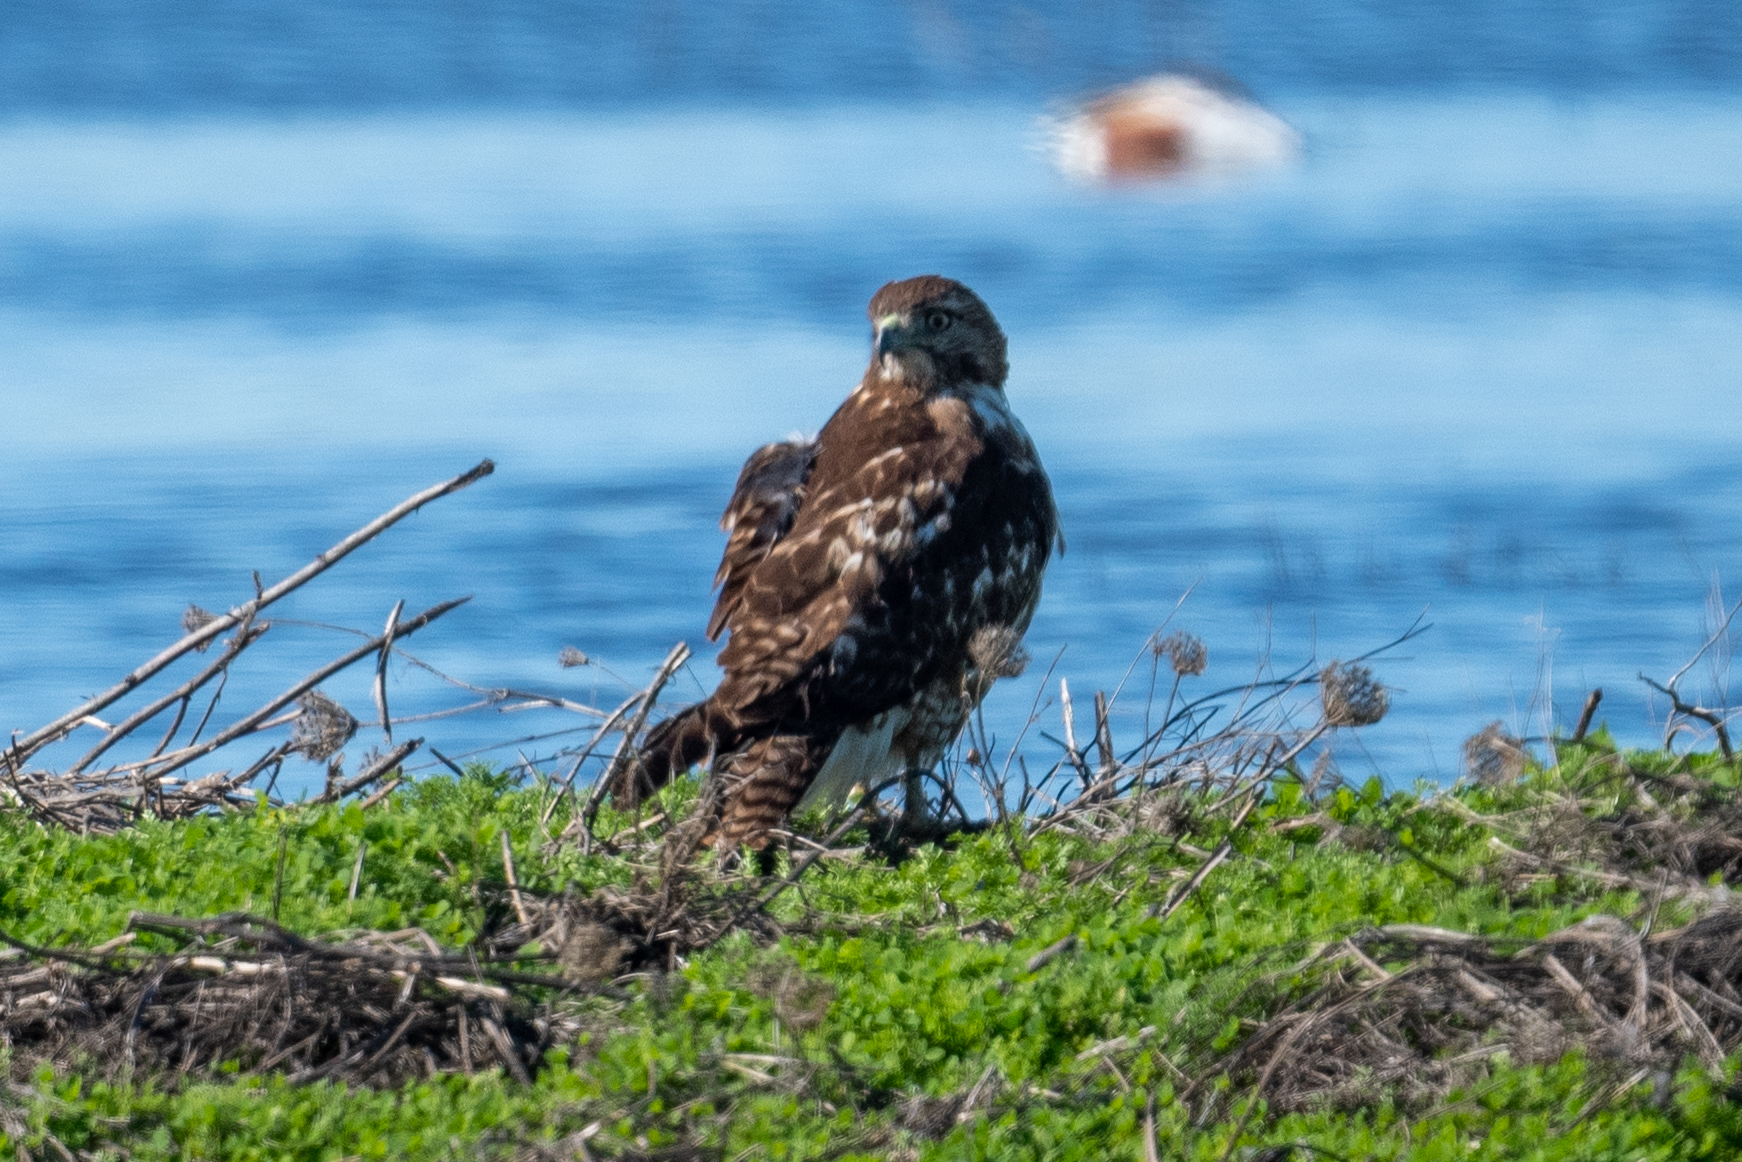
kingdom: Animalia
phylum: Chordata
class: Aves
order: Accipitriformes
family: Accipitridae
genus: Buteo
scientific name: Buteo jamaicensis
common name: Red-tailed hawk
